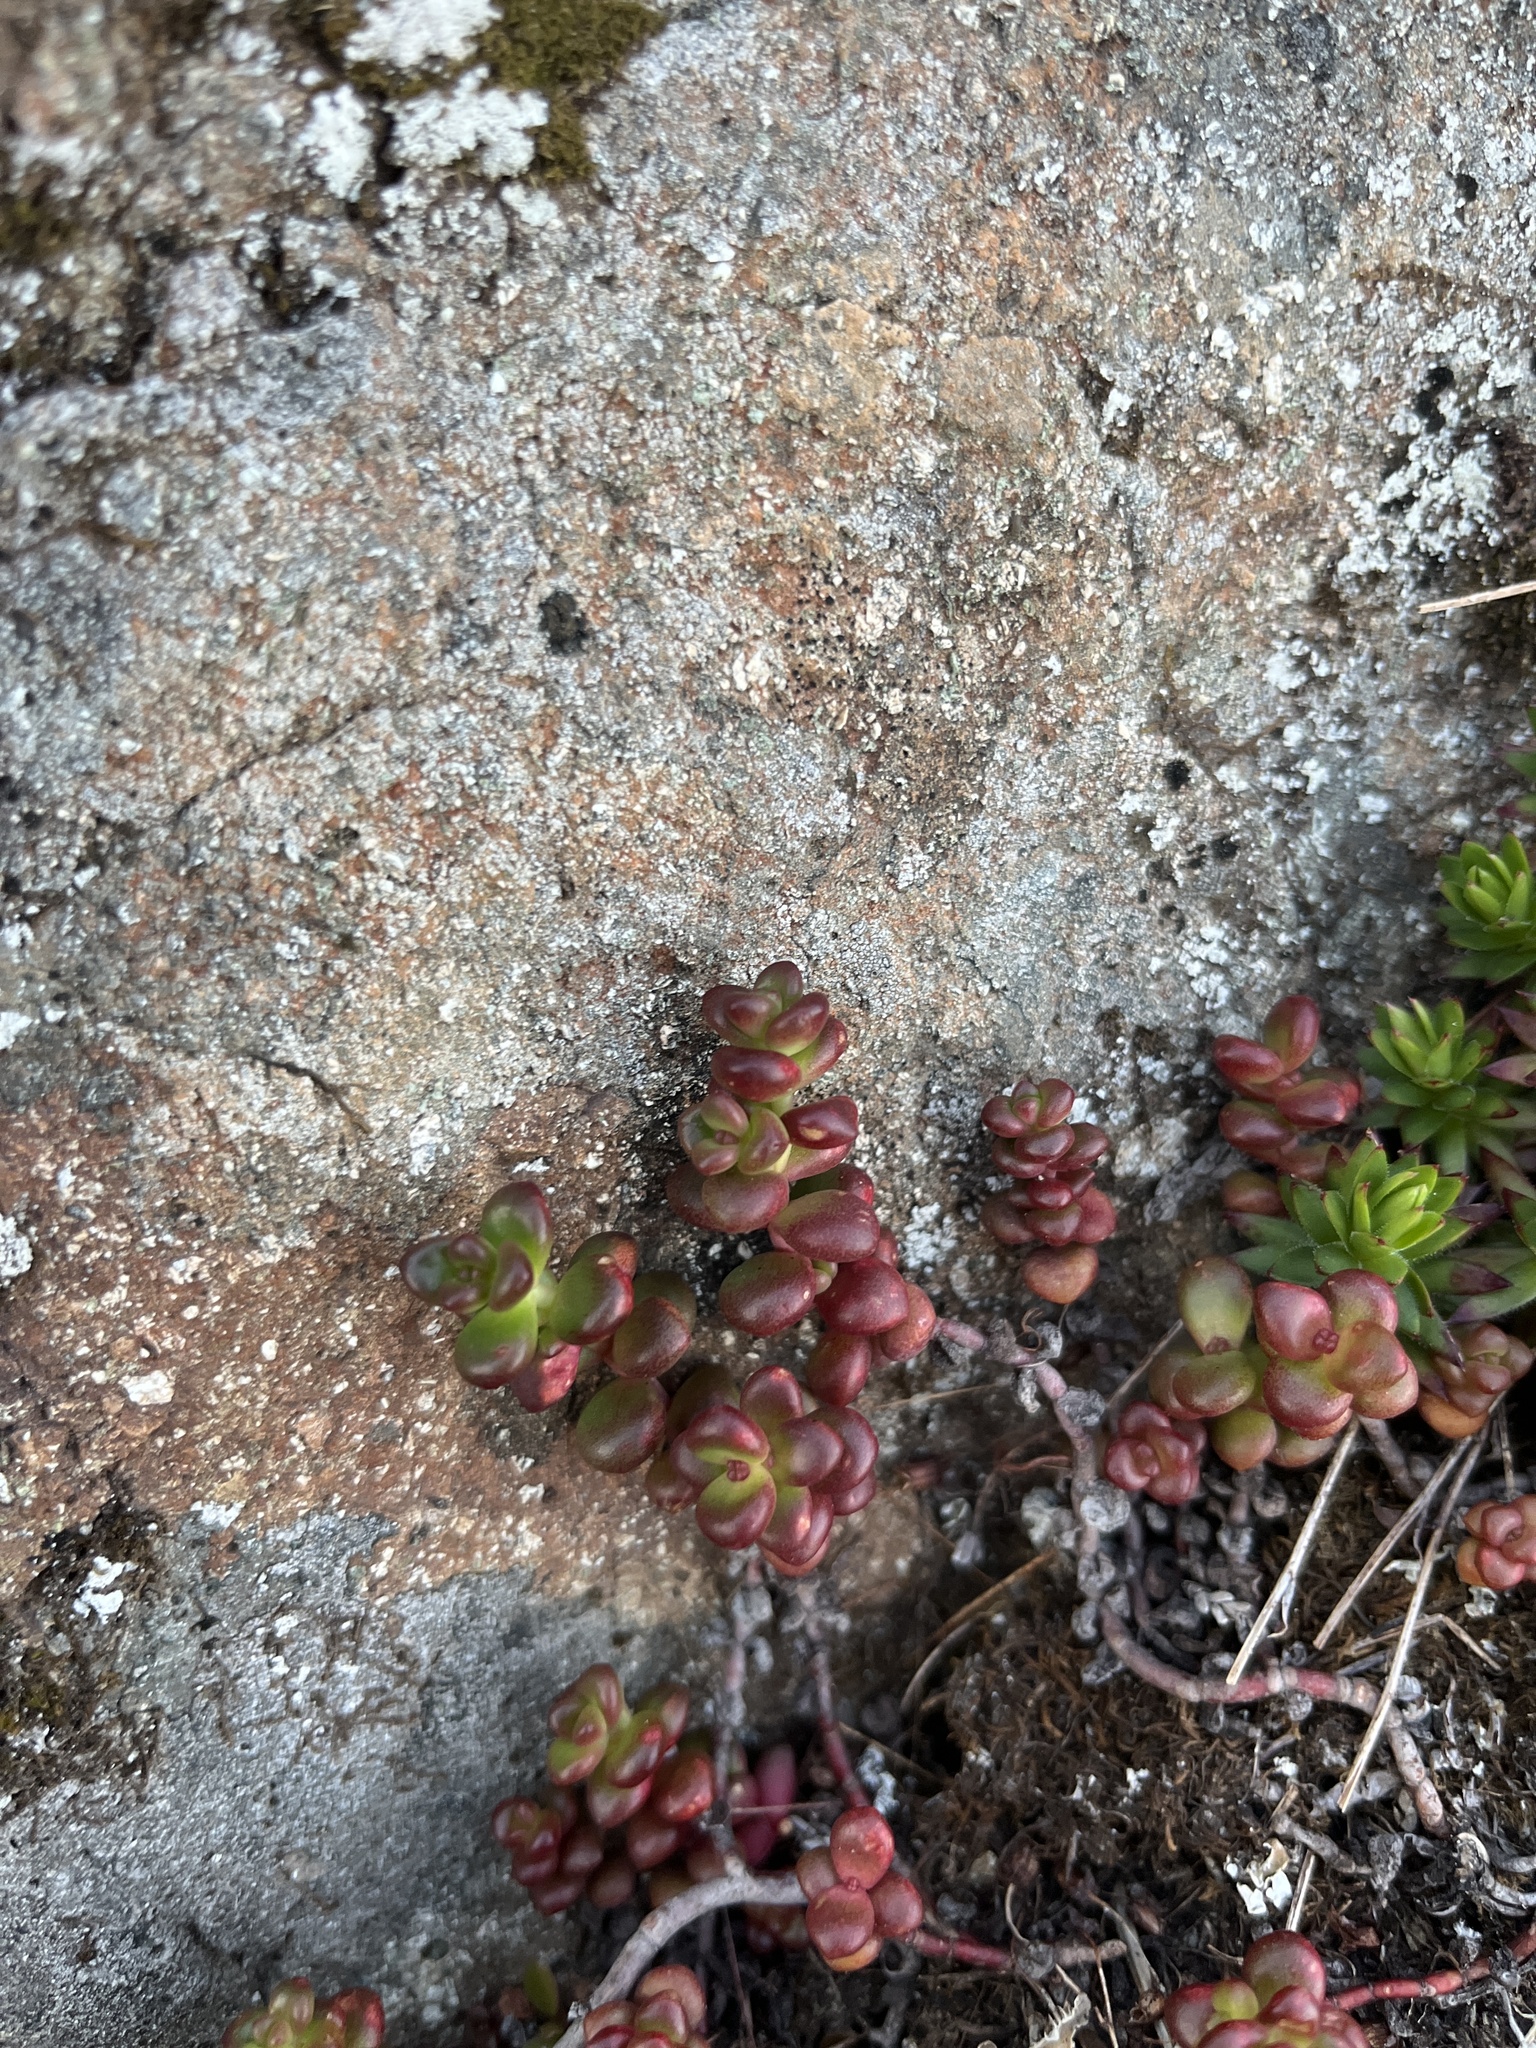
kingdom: Plantae
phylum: Tracheophyta
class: Magnoliopsida
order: Saxifragales
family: Crassulaceae
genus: Sedum
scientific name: Sedum divergens
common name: Cascade stonecrop
